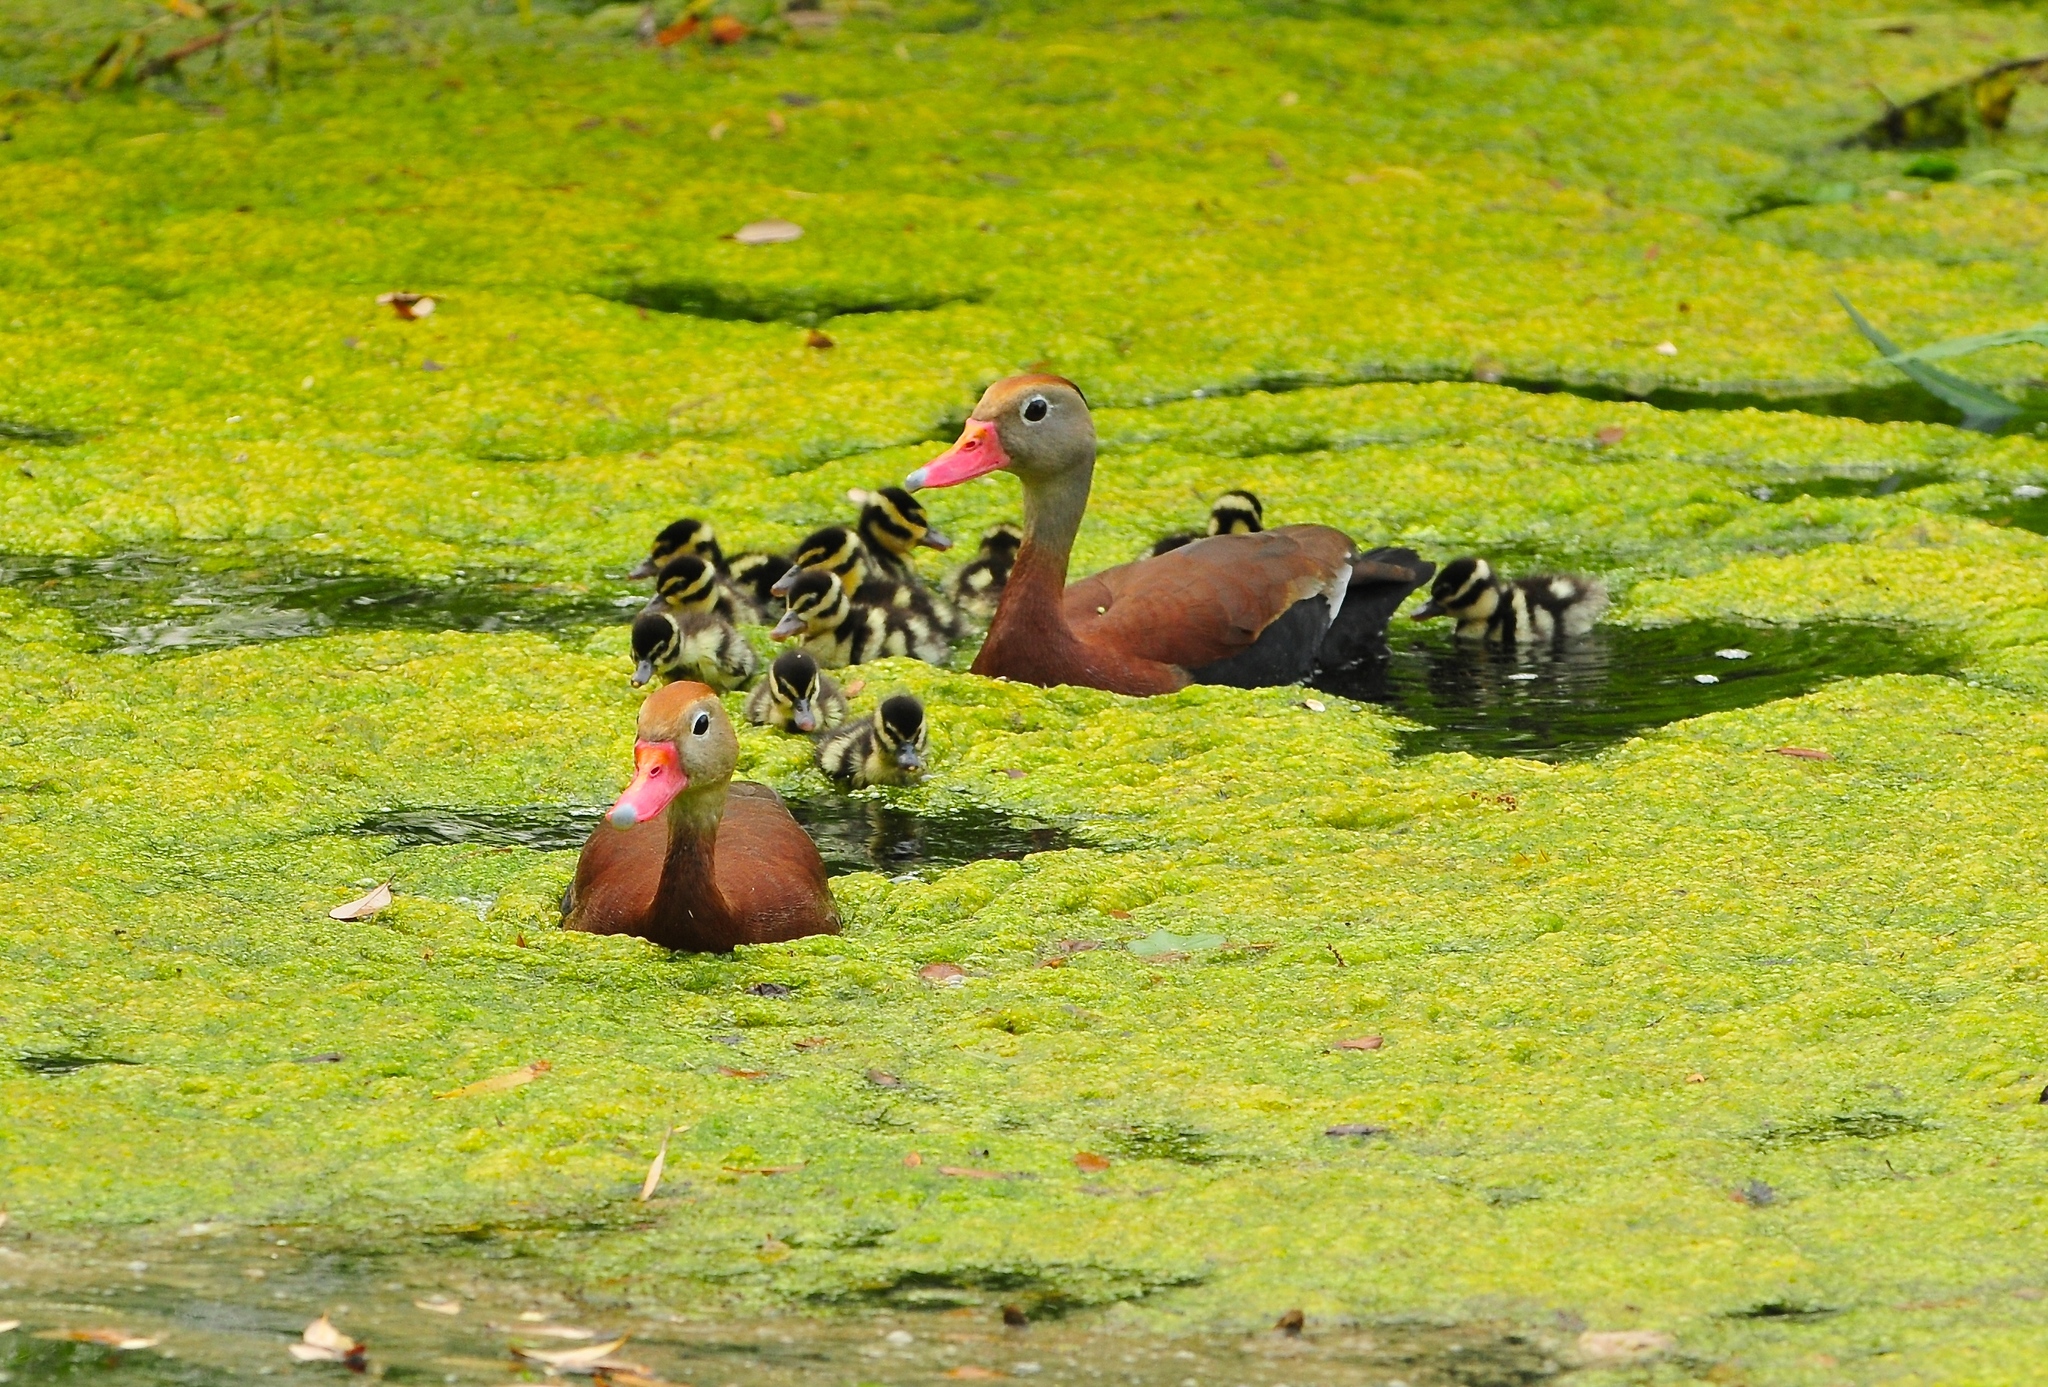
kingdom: Animalia
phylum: Chordata
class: Aves
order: Anseriformes
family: Anatidae
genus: Dendrocygna
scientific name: Dendrocygna autumnalis
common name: Black-bellied whistling duck
